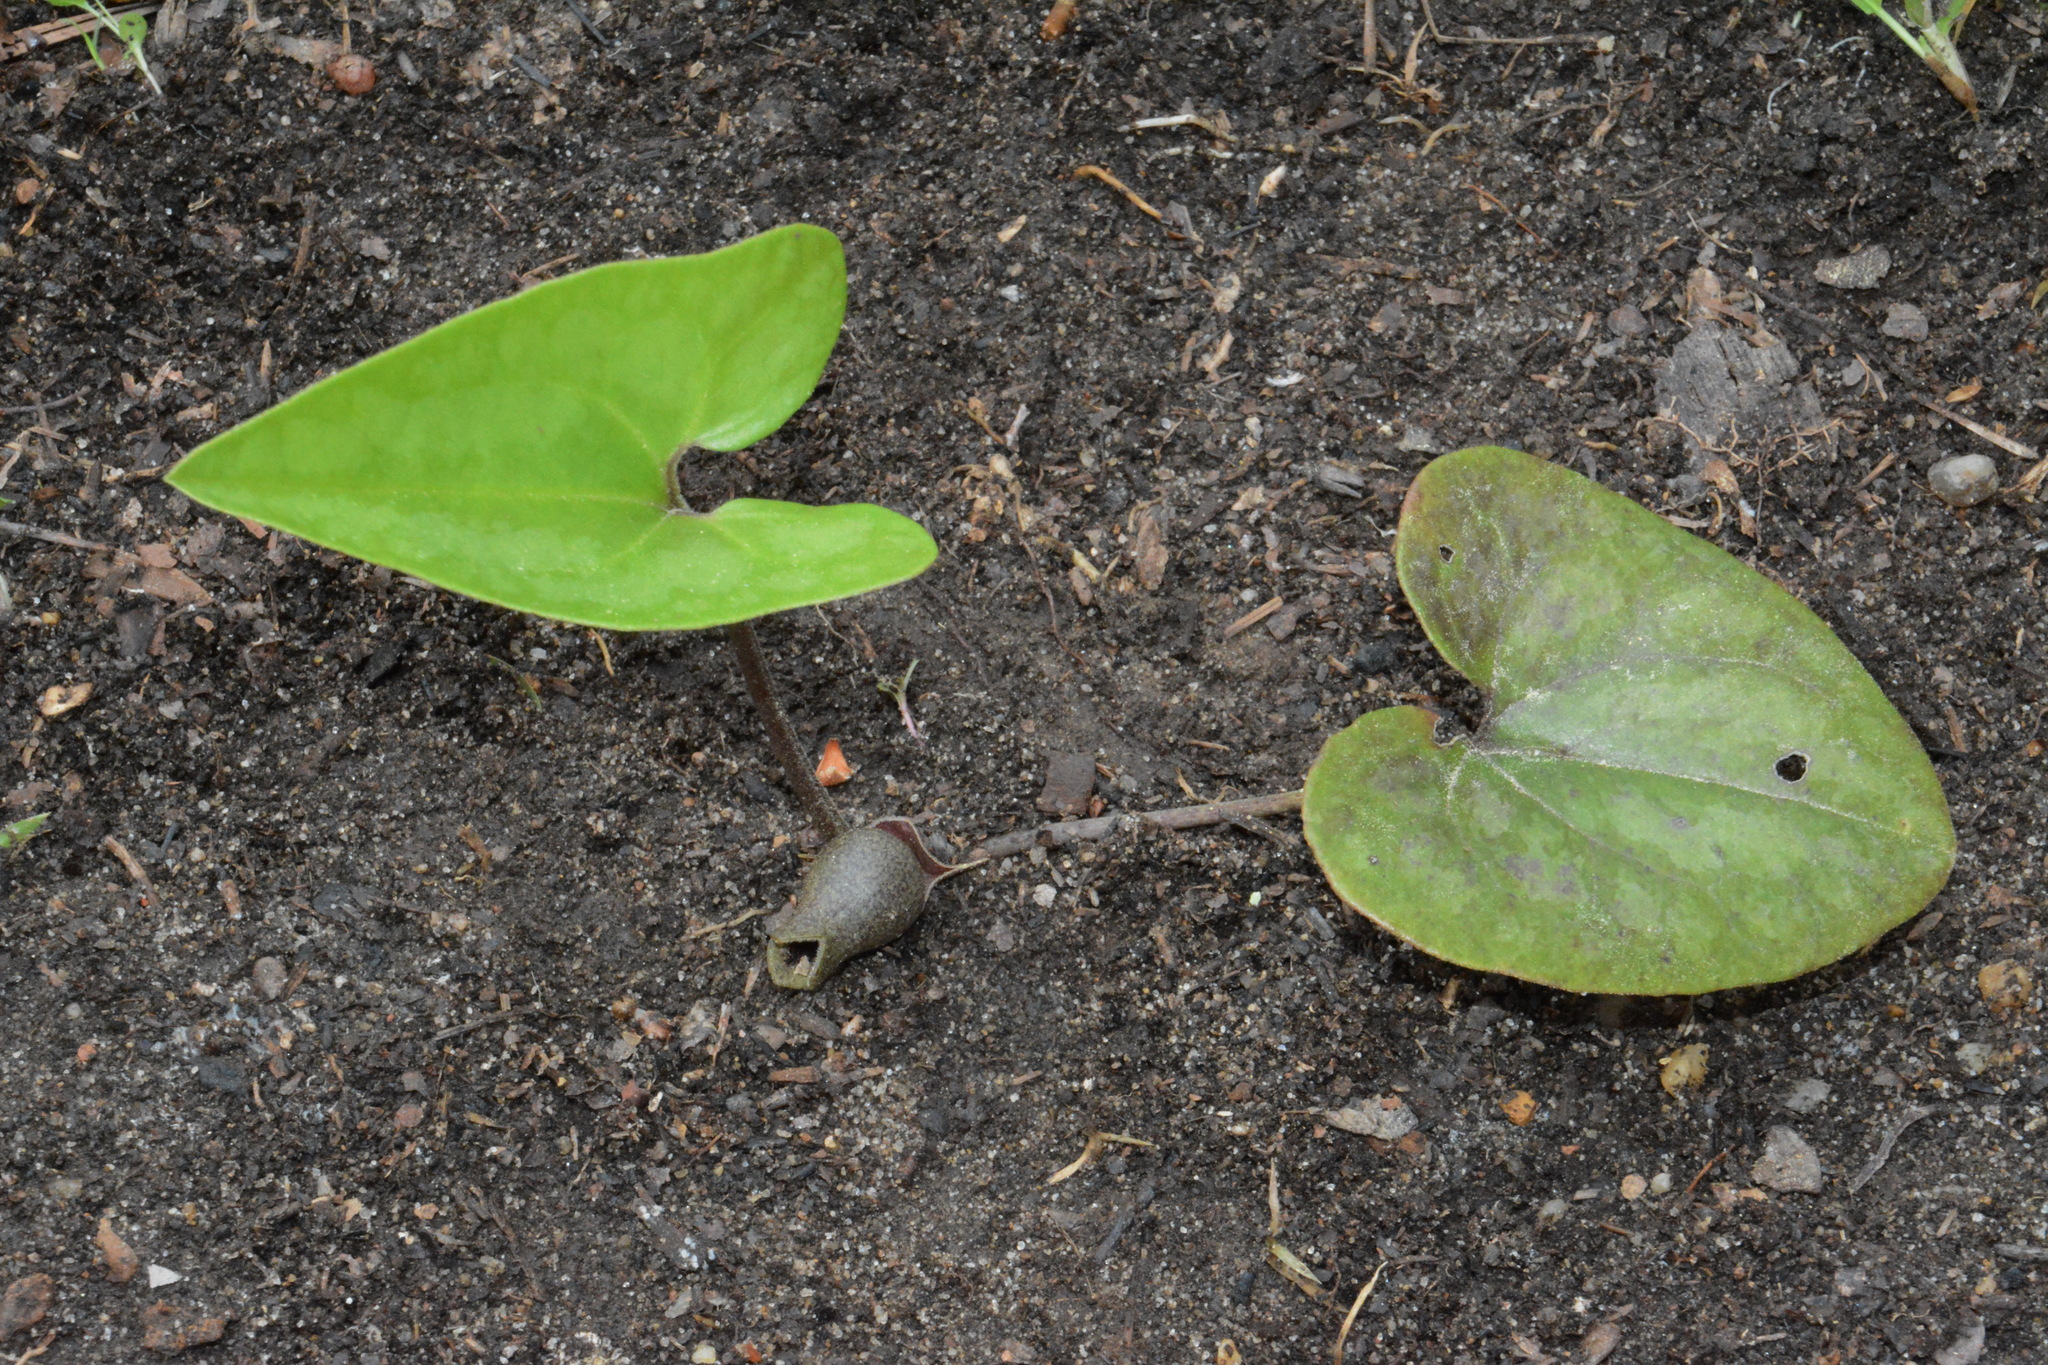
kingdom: Plantae
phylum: Tracheophyta
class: Magnoliopsida
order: Piperales
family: Aristolochiaceae
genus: Hexastylis
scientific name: Hexastylis arifolia
